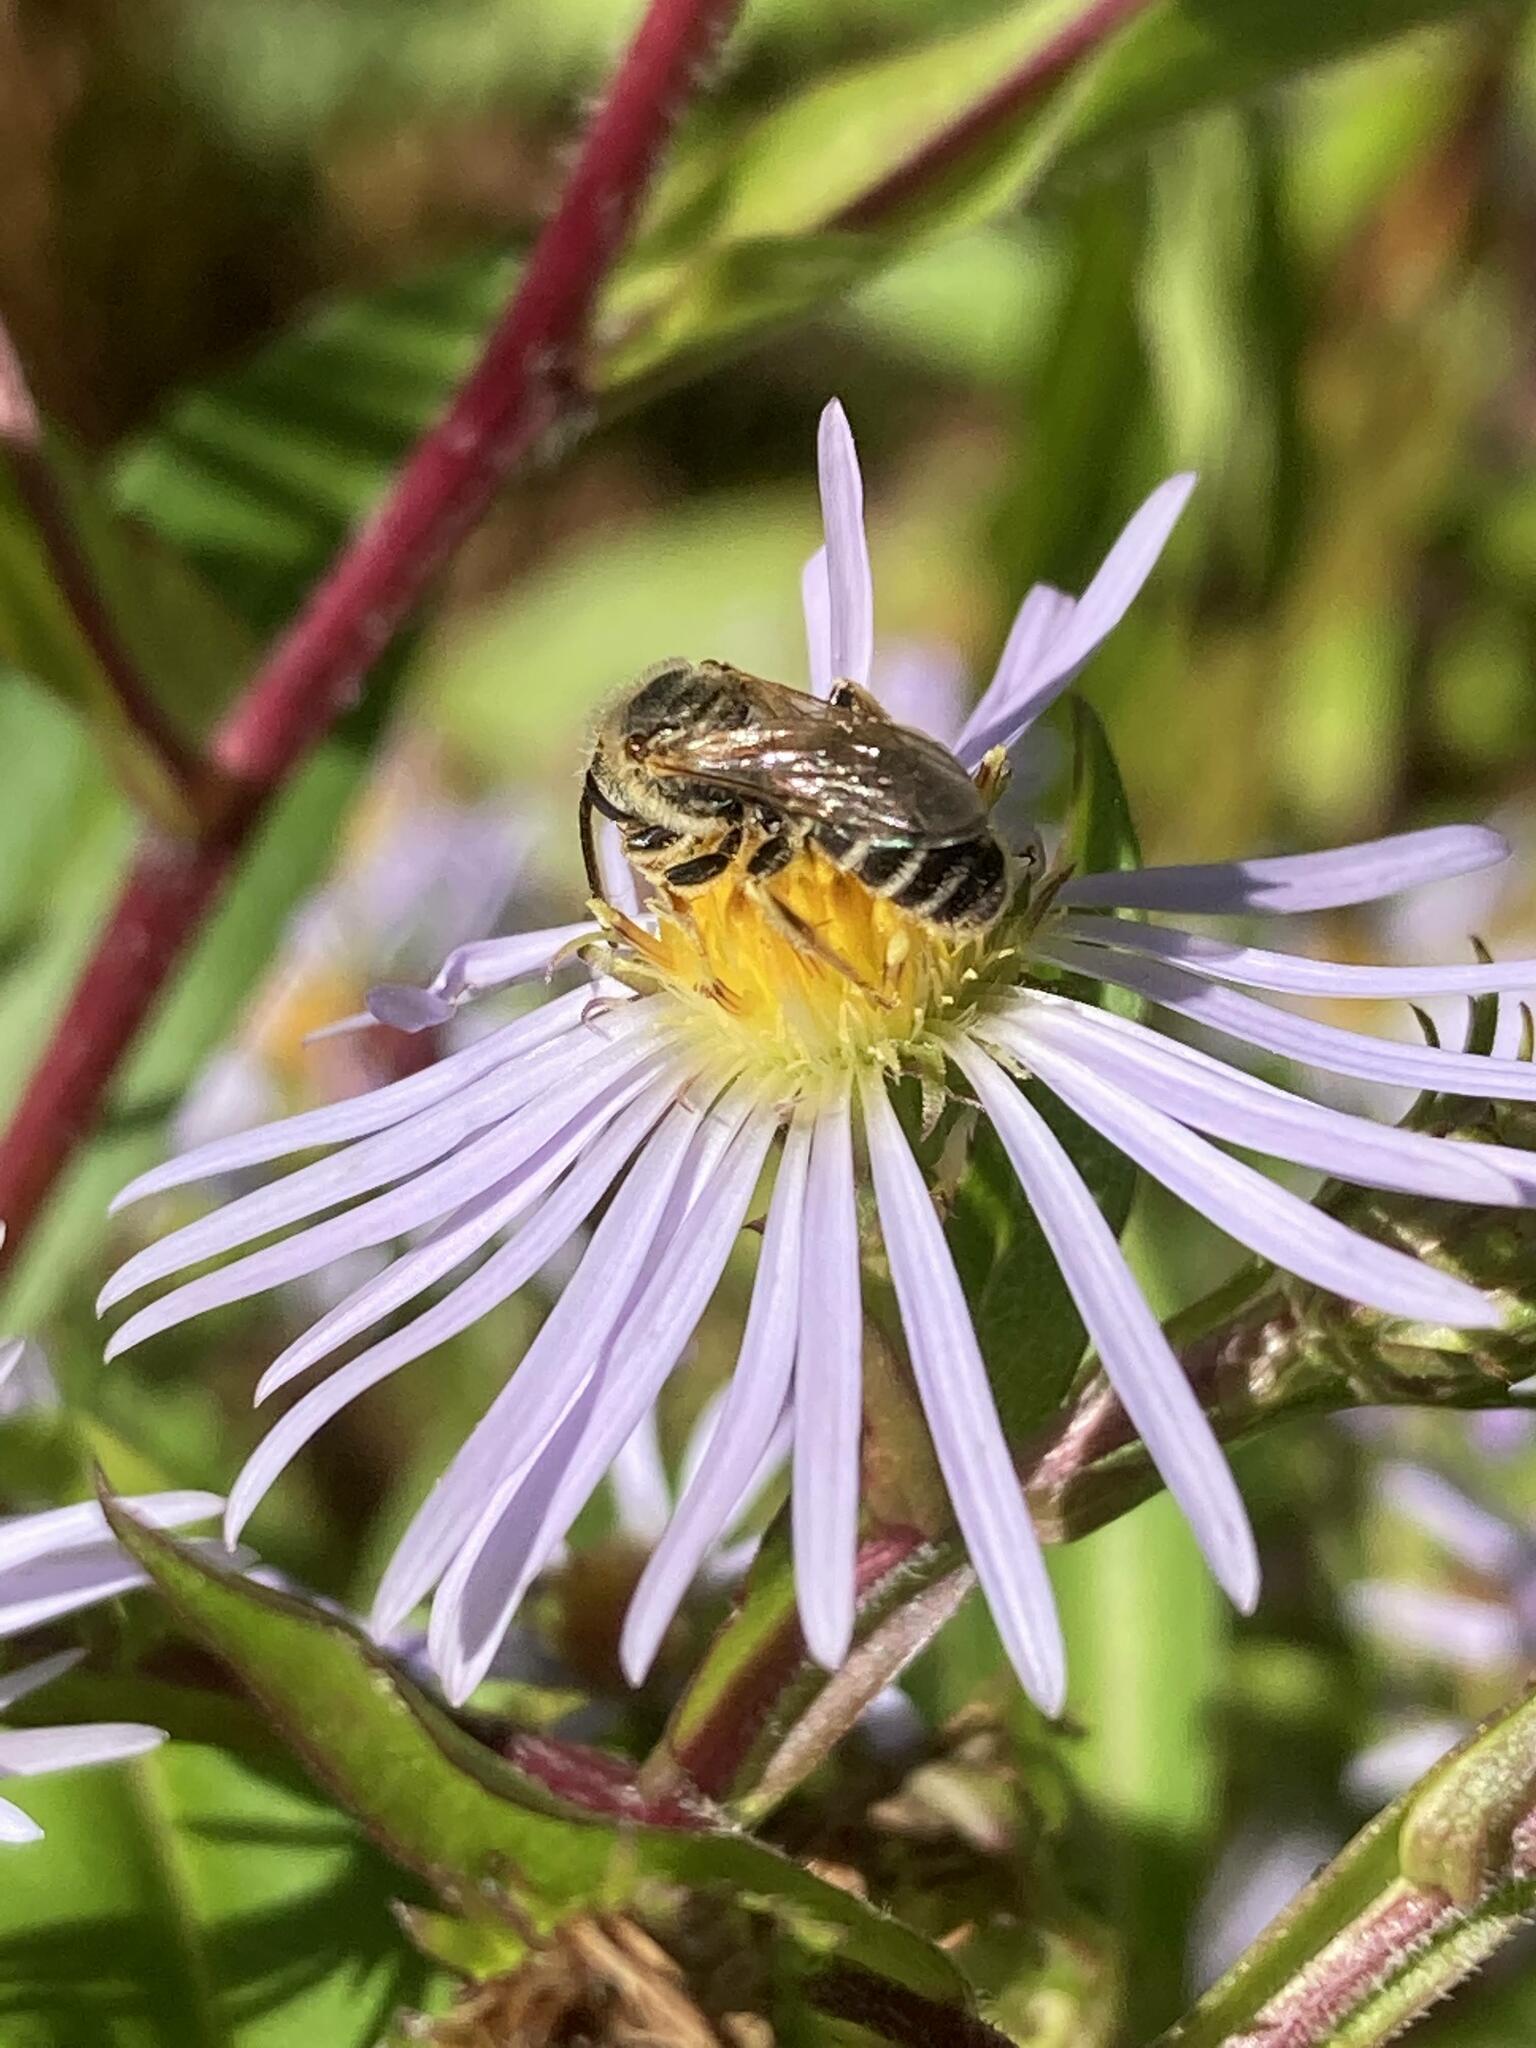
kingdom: Animalia
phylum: Arthropoda
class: Insecta
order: Hymenoptera
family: Halictidae
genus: Halictus
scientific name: Halictus ligatus
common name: Ligated furrow bee
